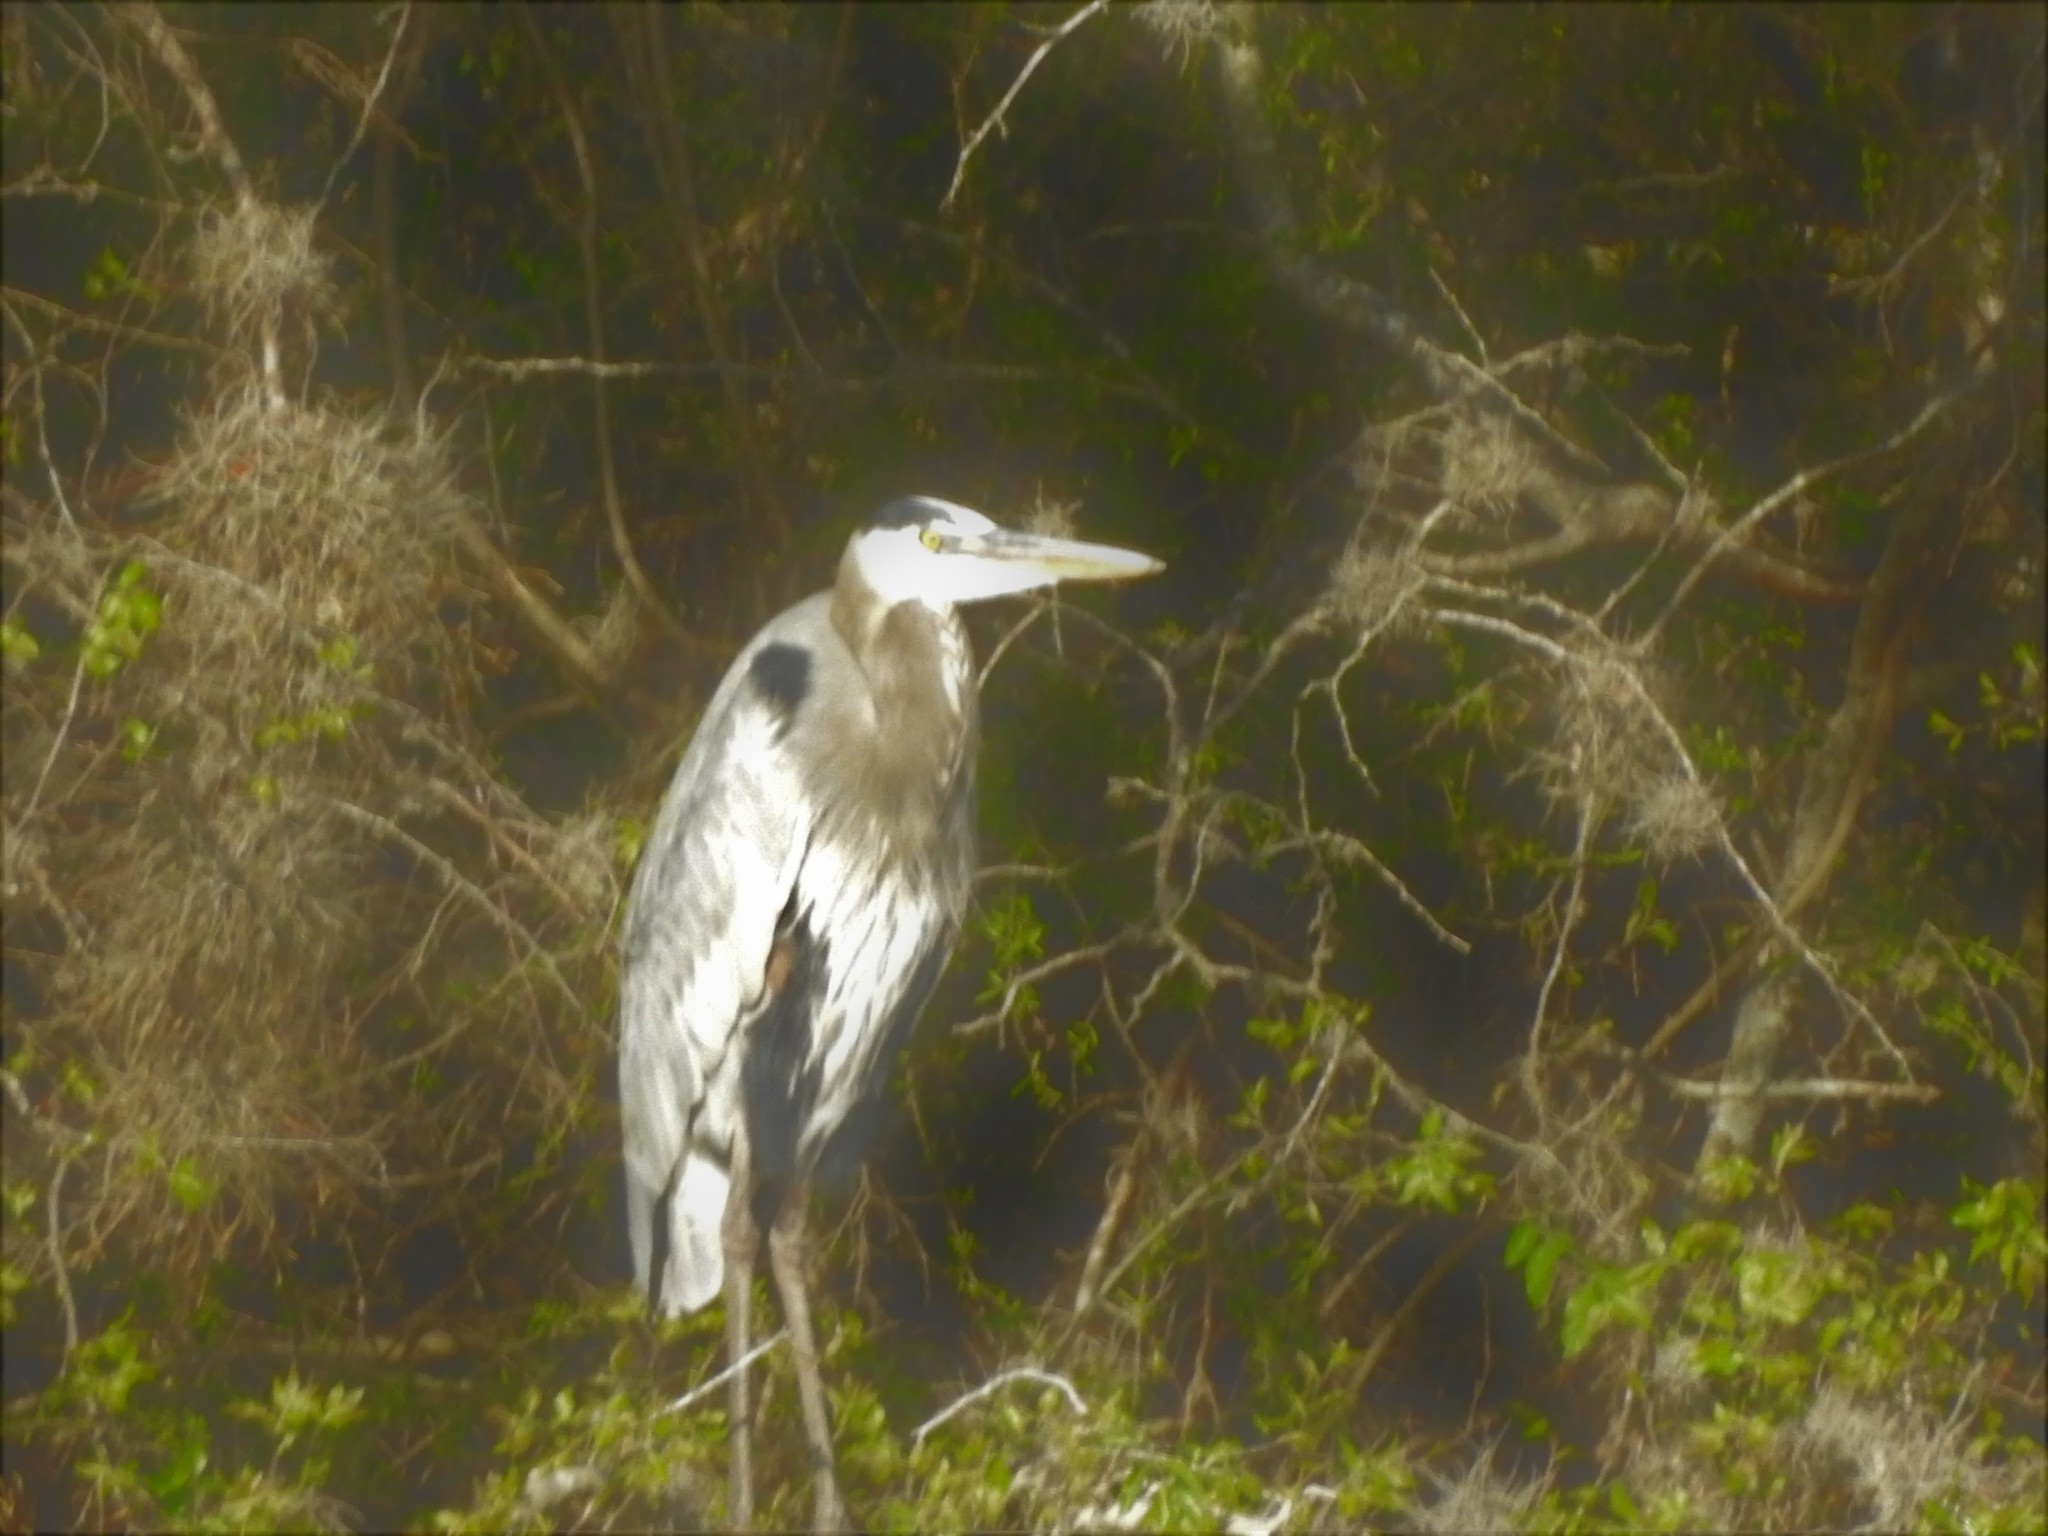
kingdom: Animalia
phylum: Chordata
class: Aves
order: Pelecaniformes
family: Ardeidae
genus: Ardea
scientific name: Ardea herodias
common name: Great blue heron
